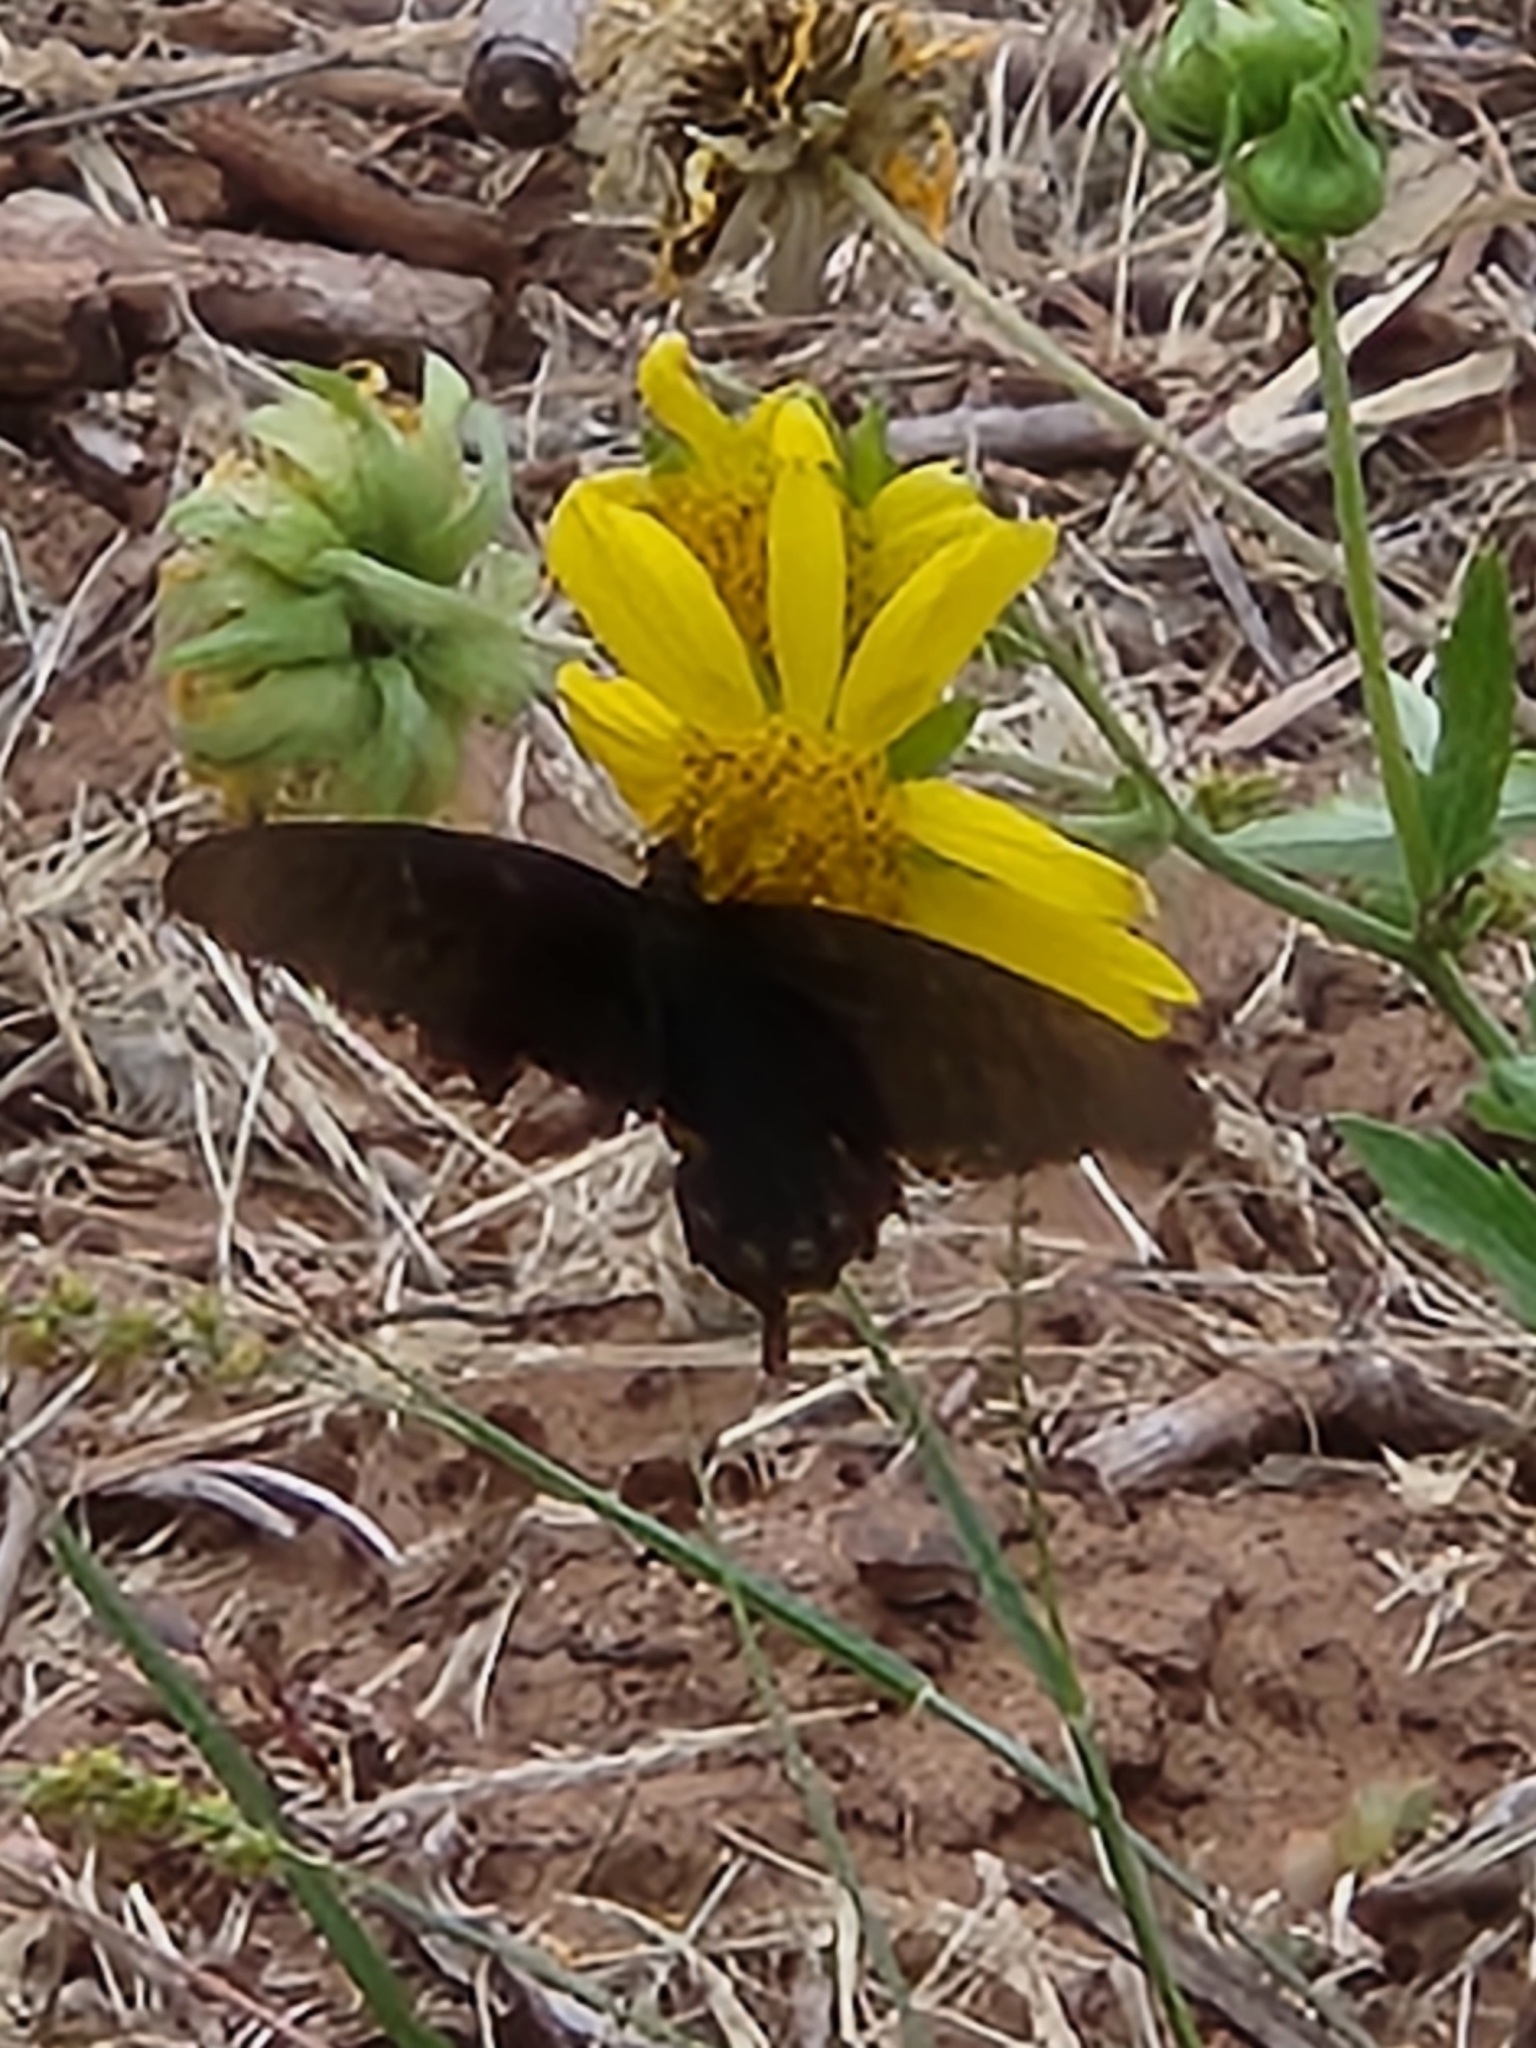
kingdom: Animalia
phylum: Arthropoda
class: Insecta
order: Lepidoptera
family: Papilionidae
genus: Battus
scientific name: Battus philenor
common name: Pipevine swallowtail
